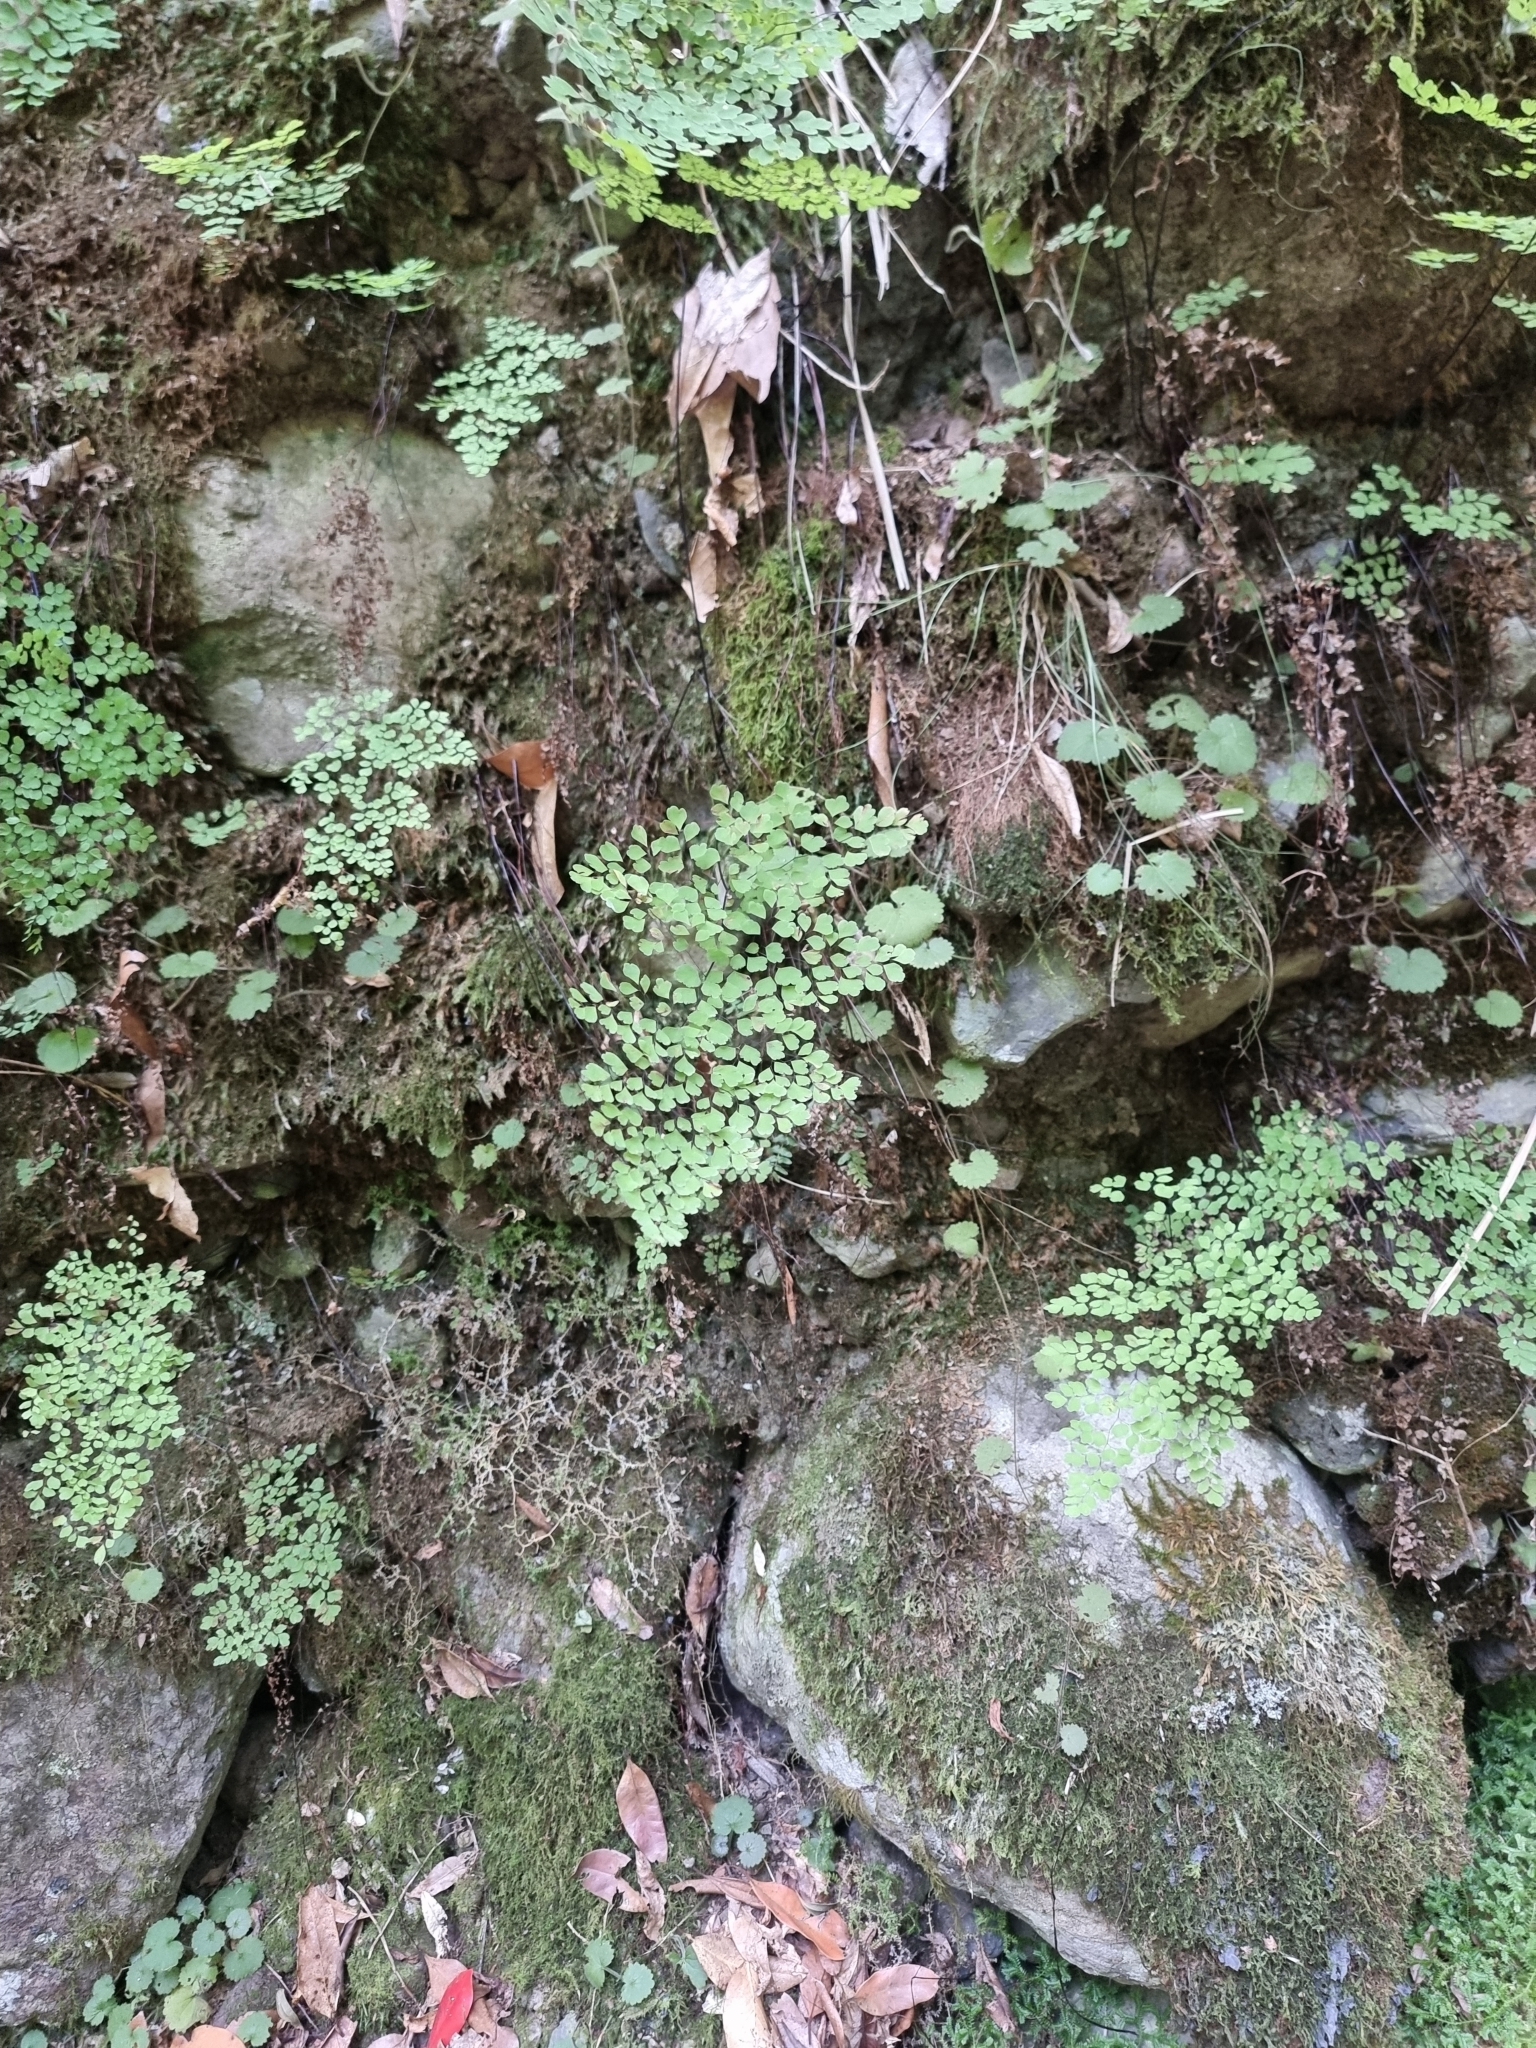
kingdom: Plantae
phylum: Tracheophyta
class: Polypodiopsida
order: Polypodiales
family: Pteridaceae
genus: Adiantum
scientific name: Adiantum raddianum
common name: Delta maidenhair fern
